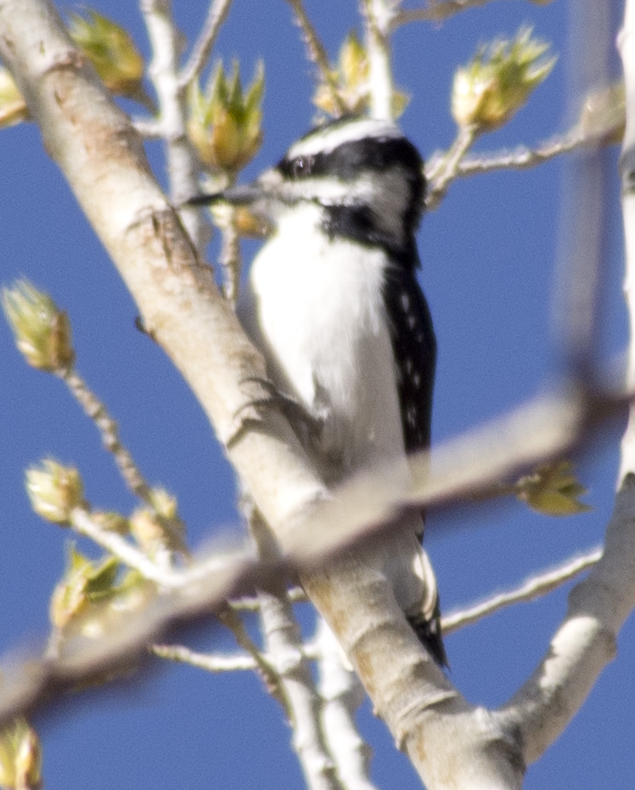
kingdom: Animalia
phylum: Chordata
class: Aves
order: Piciformes
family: Picidae
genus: Leuconotopicus
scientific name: Leuconotopicus villosus
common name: Hairy woodpecker
